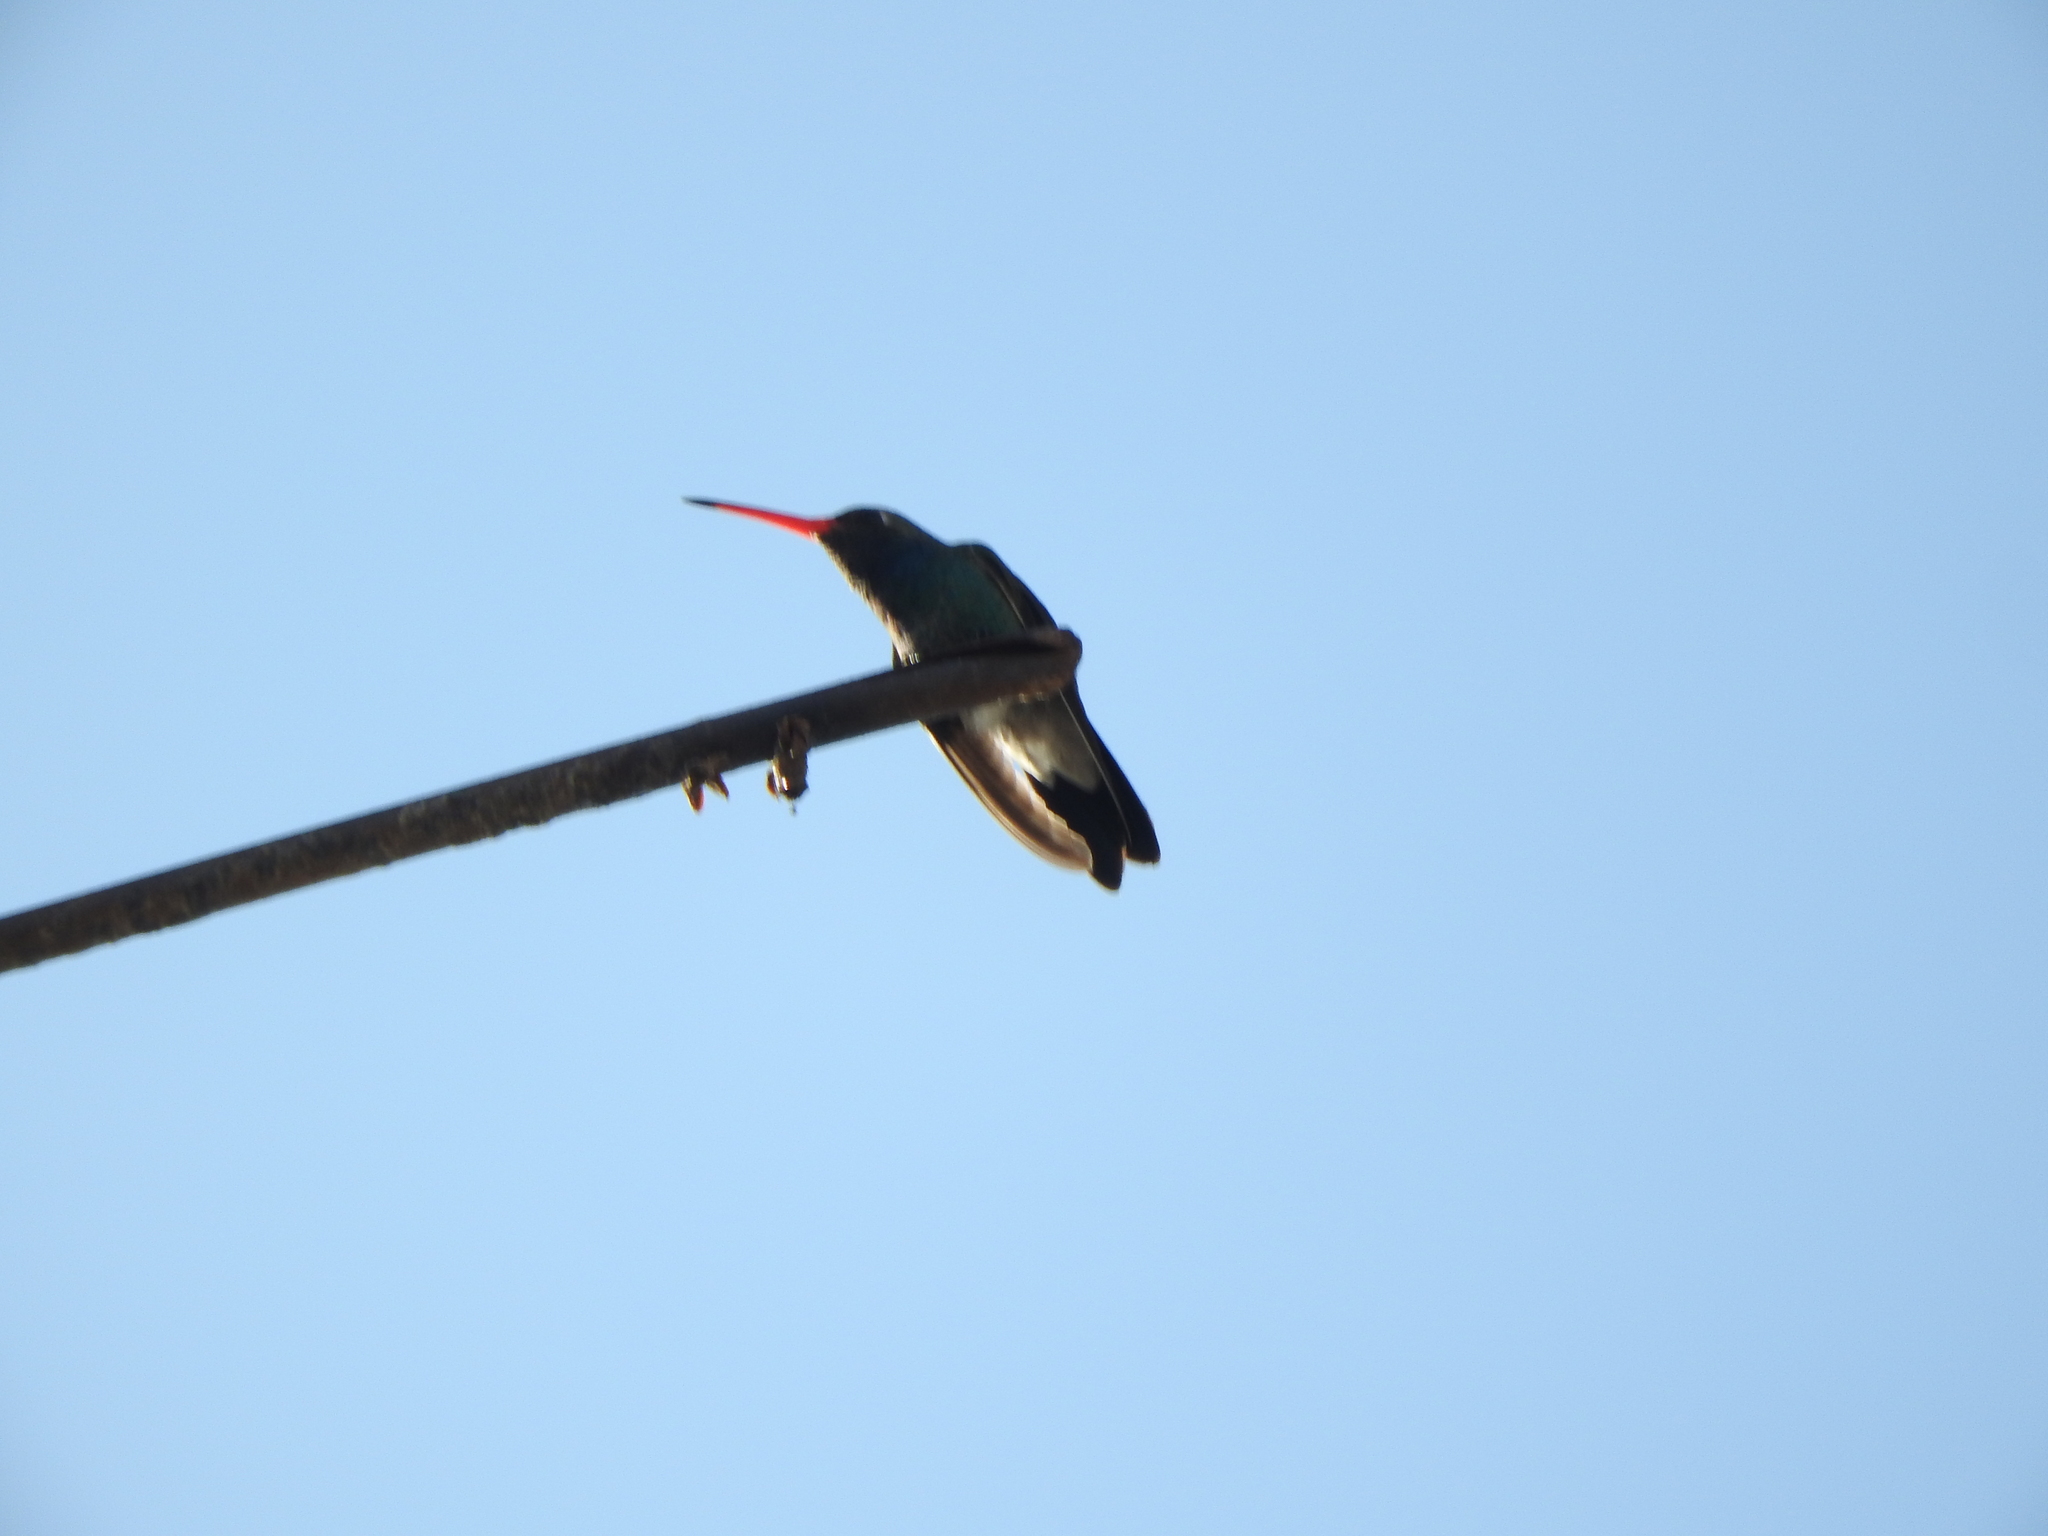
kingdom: Animalia
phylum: Chordata
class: Aves
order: Apodiformes
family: Trochilidae
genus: Cynanthus
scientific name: Cynanthus latirostris
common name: Broad-billed hummingbird
